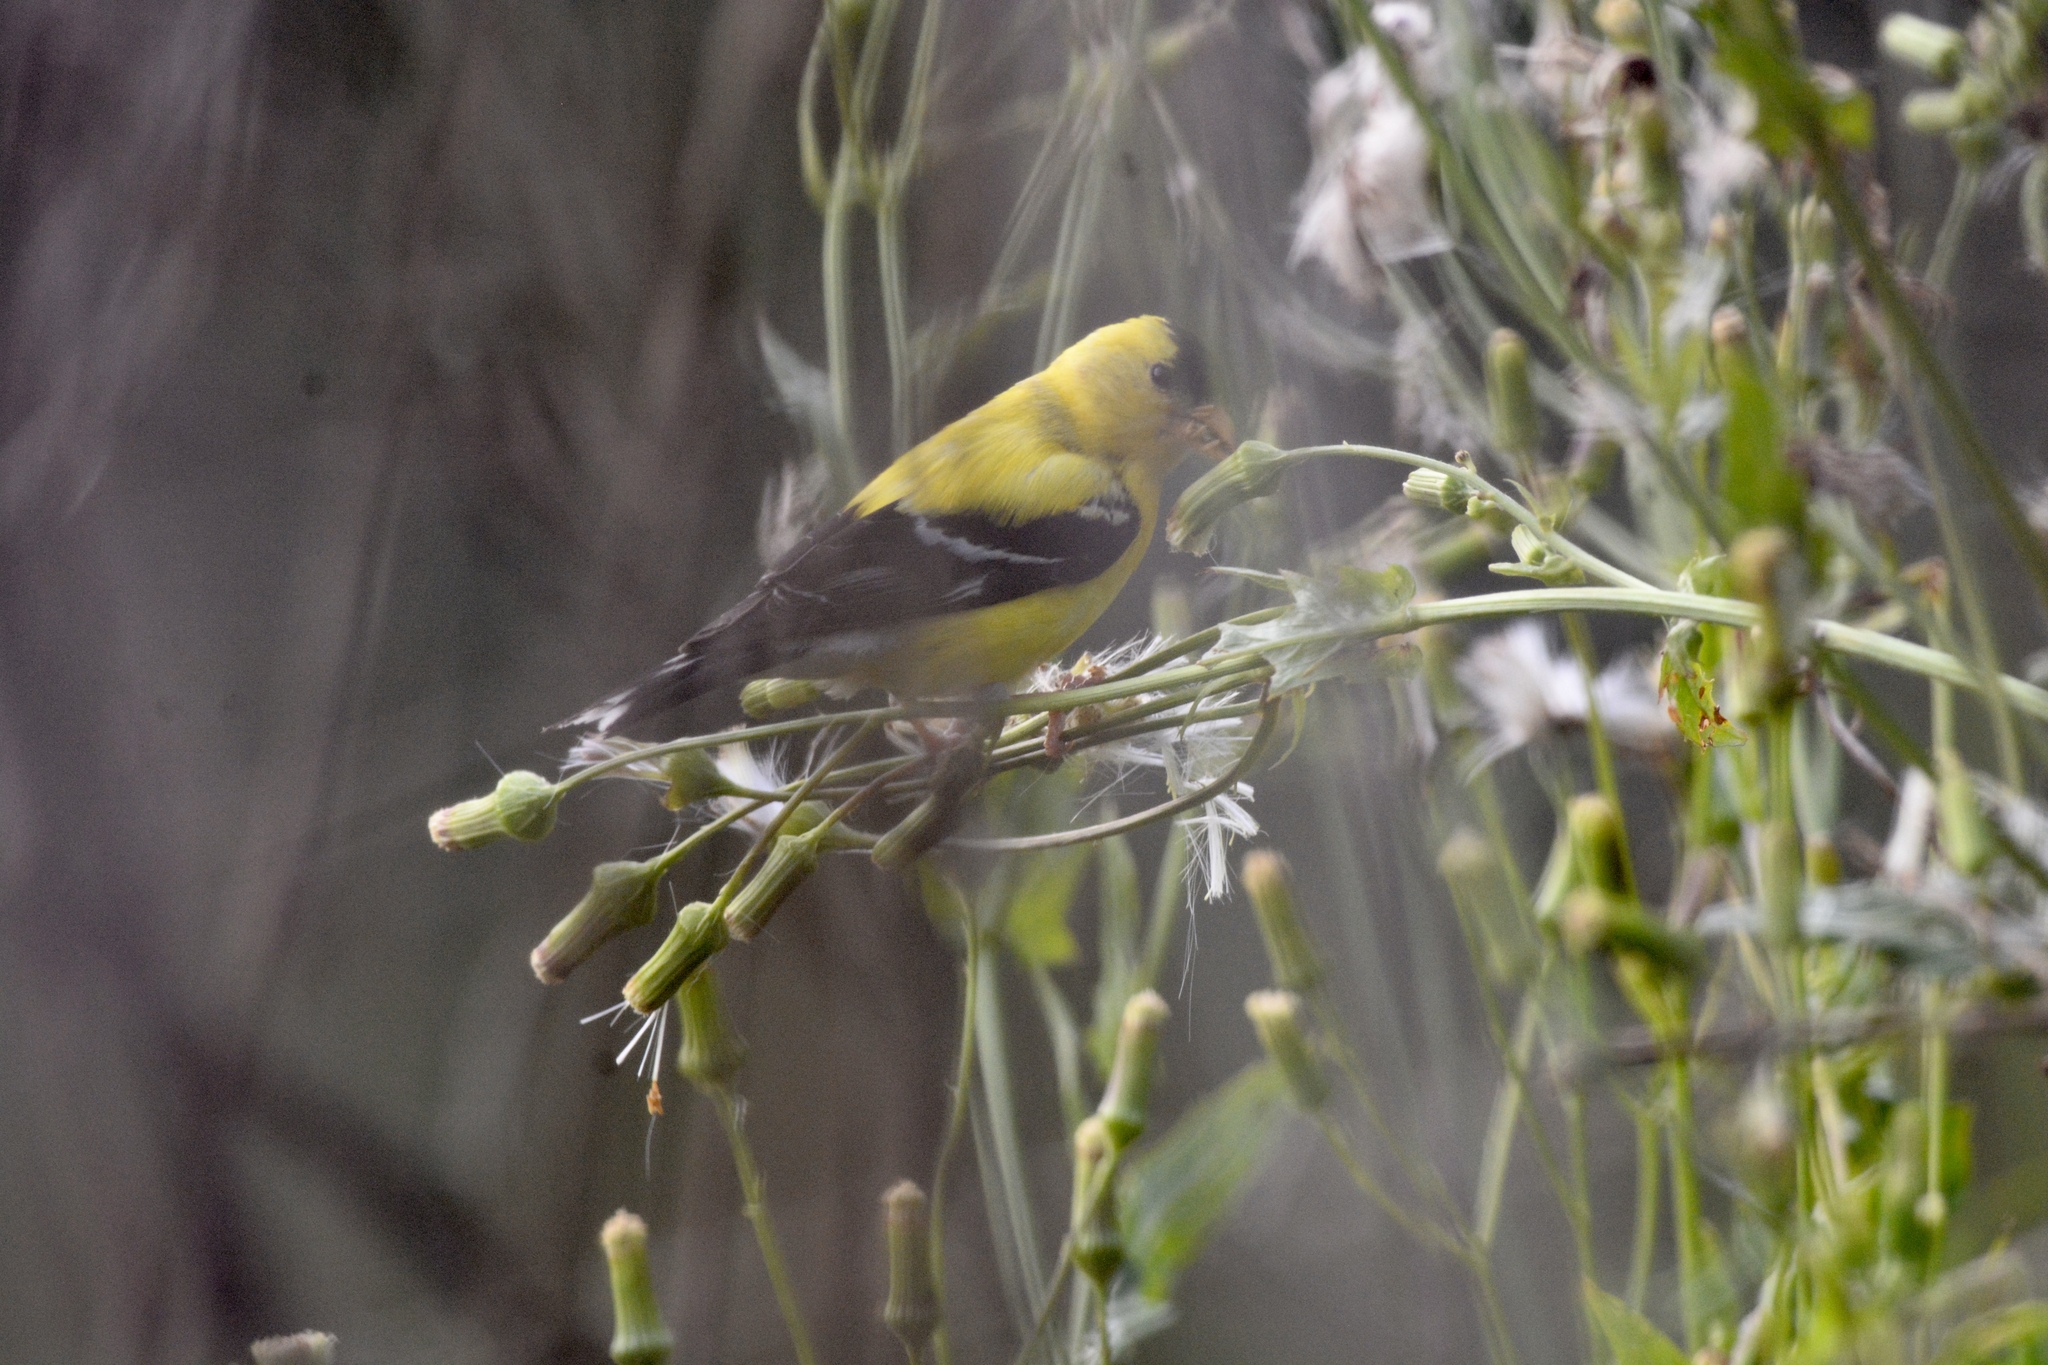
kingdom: Animalia
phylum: Chordata
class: Aves
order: Passeriformes
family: Fringillidae
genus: Spinus
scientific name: Spinus tristis
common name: American goldfinch
